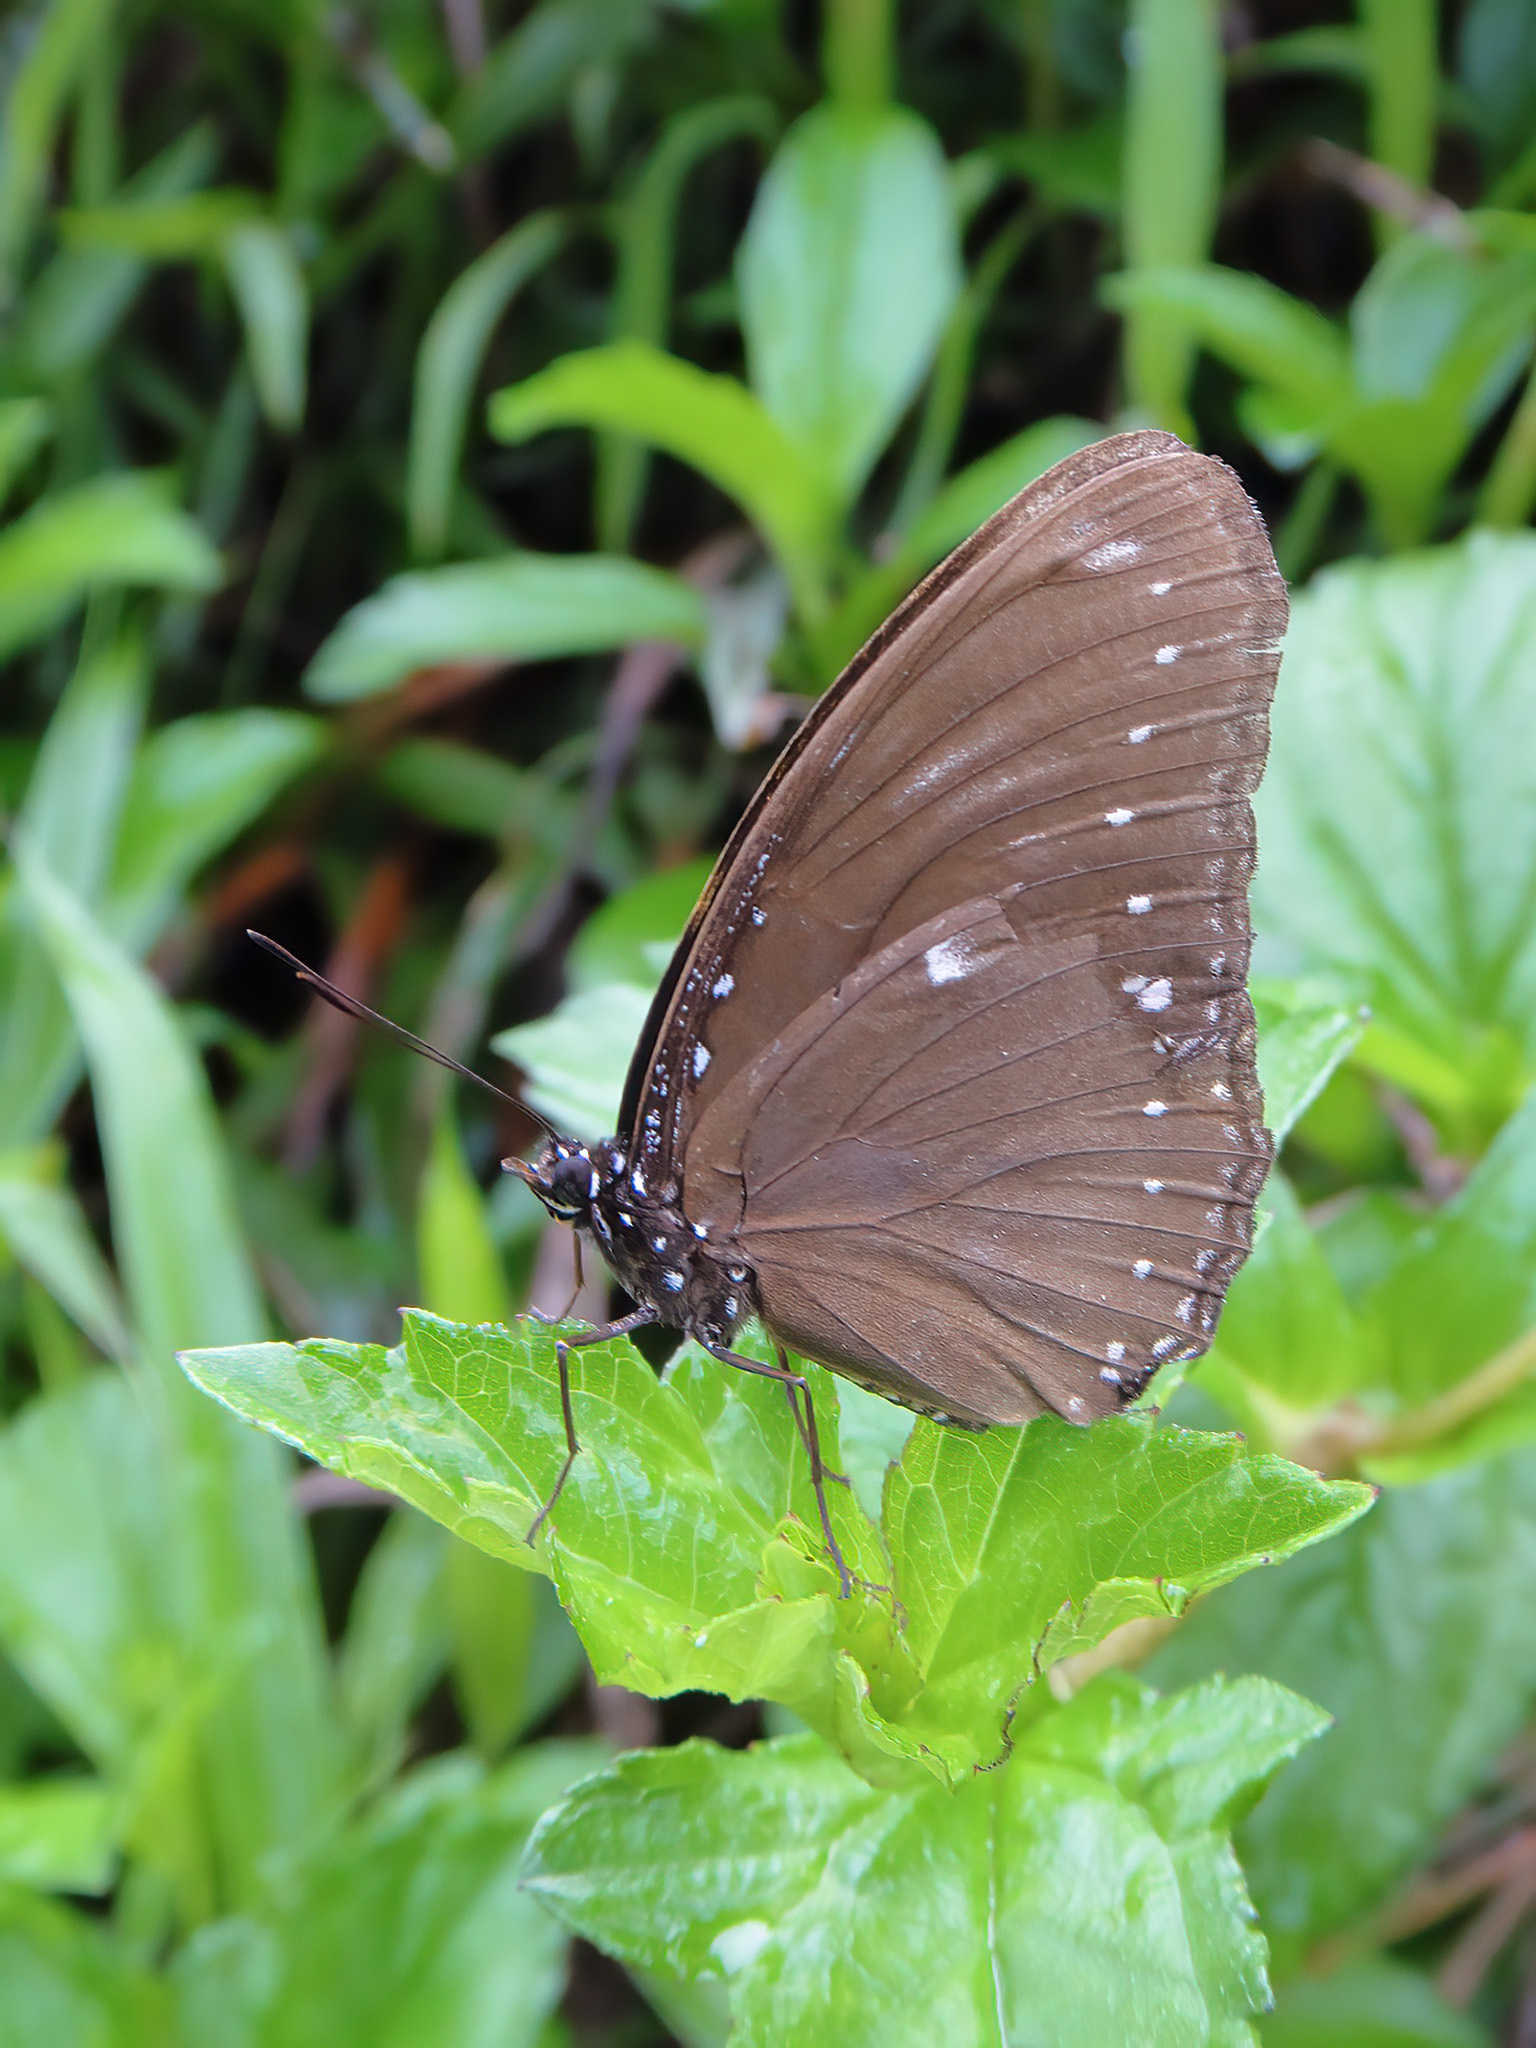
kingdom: Animalia
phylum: Arthropoda
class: Insecta
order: Lepidoptera
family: Nymphalidae
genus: Hypolimnas
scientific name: Hypolimnas anomala
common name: Malayan eggfly
